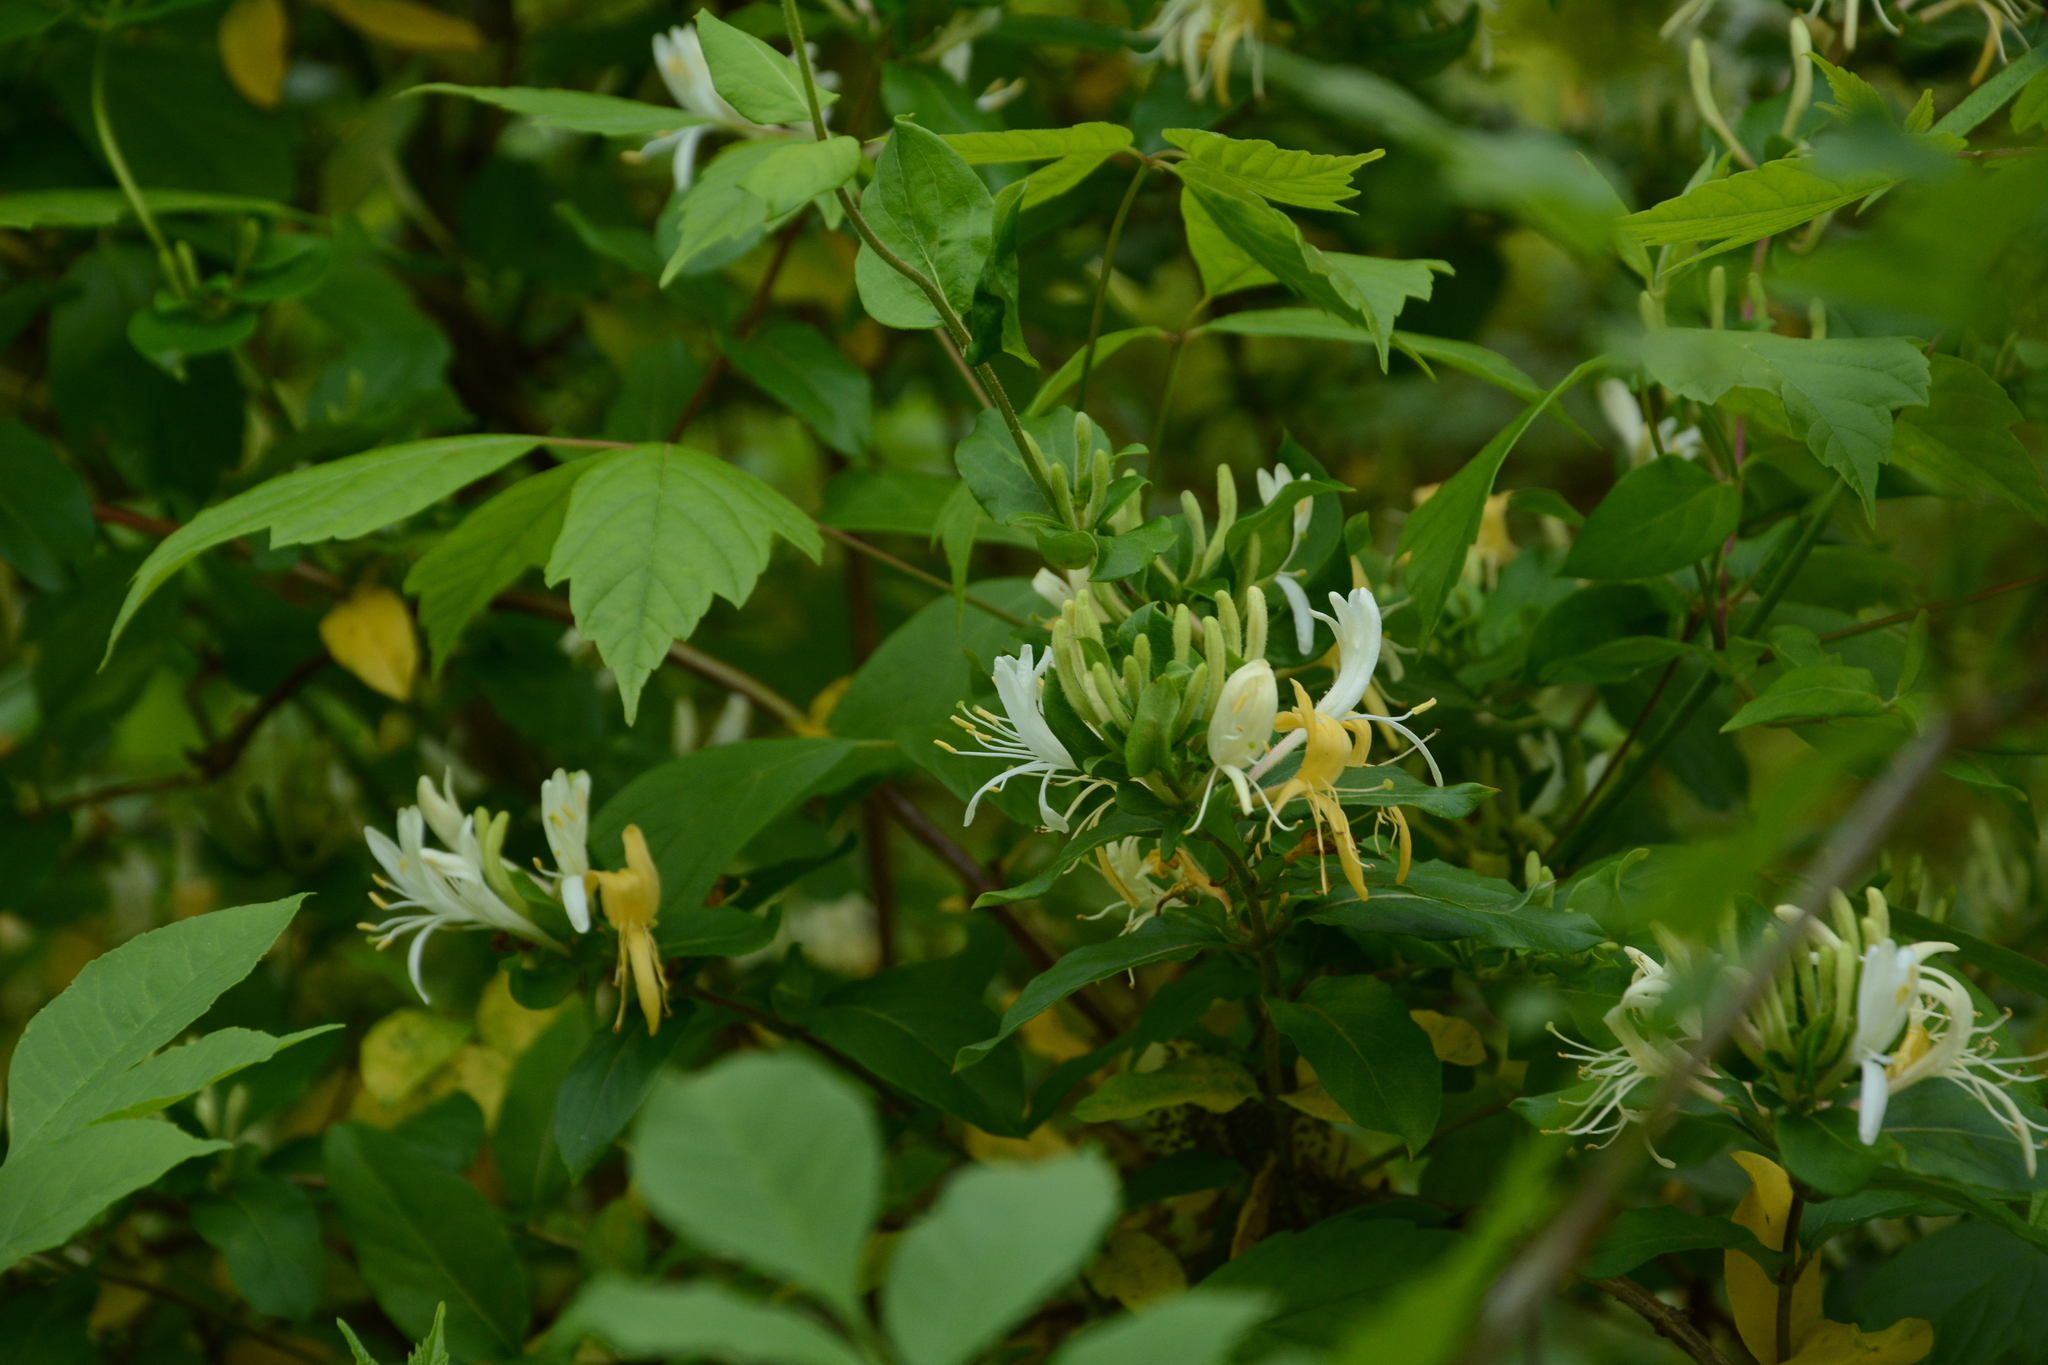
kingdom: Plantae
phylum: Tracheophyta
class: Magnoliopsida
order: Dipsacales
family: Caprifoliaceae
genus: Lonicera
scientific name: Lonicera japonica
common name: Japanese honeysuckle
